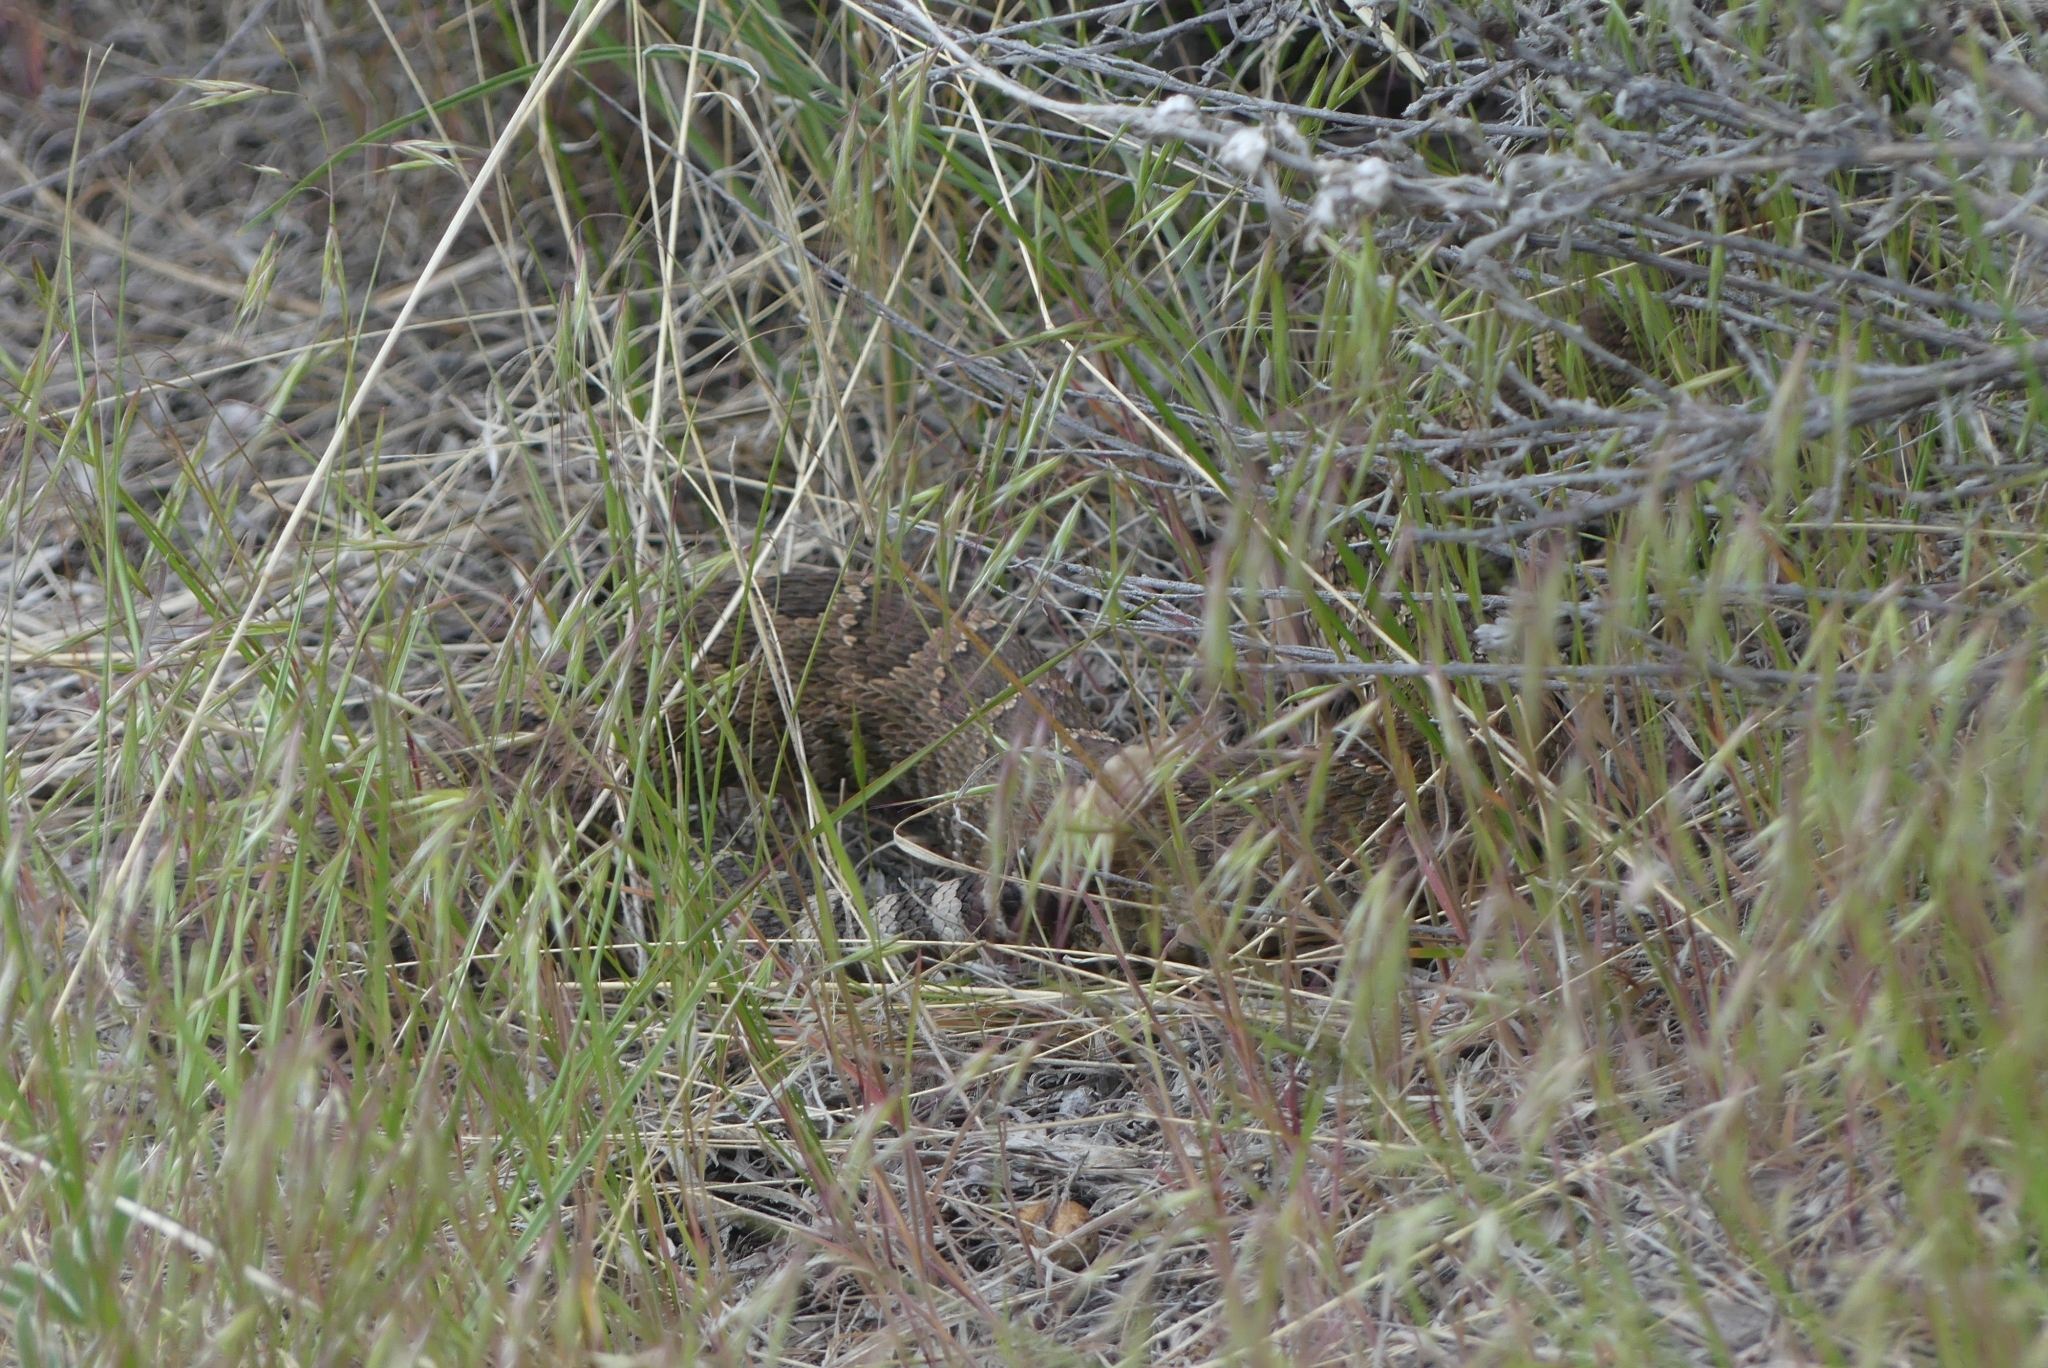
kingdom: Animalia
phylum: Chordata
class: Squamata
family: Viperidae
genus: Crotalus
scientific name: Crotalus oreganus
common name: Abyssus
